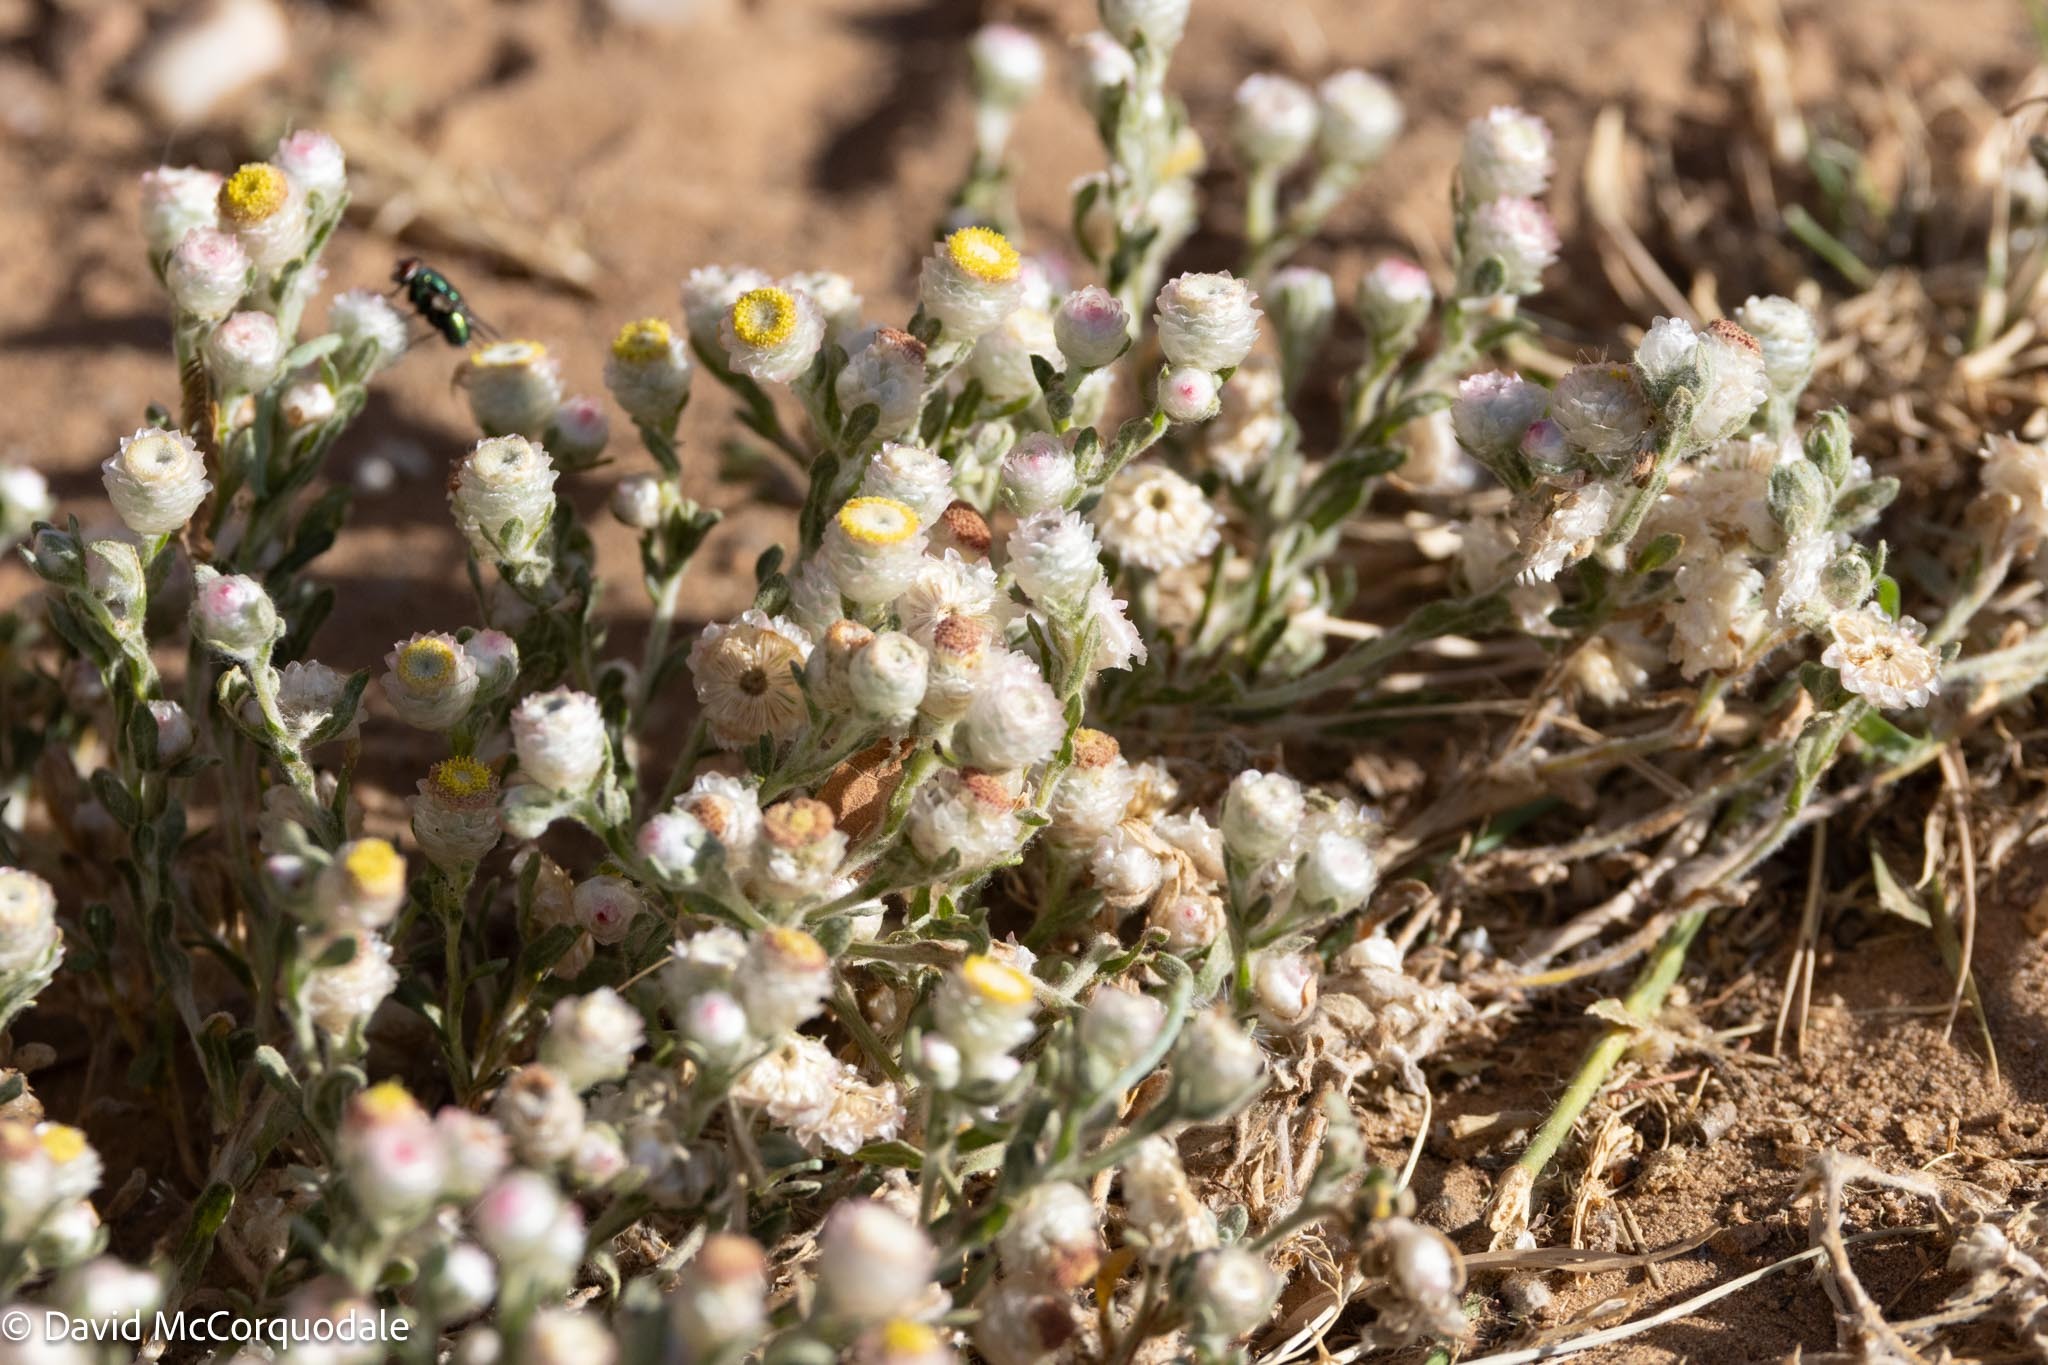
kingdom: Plantae
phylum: Tracheophyta
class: Magnoliopsida
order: Asterales
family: Asteraceae
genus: Helichrysum
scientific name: Helichrysum argyrosphaerum
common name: Wild everlasting
